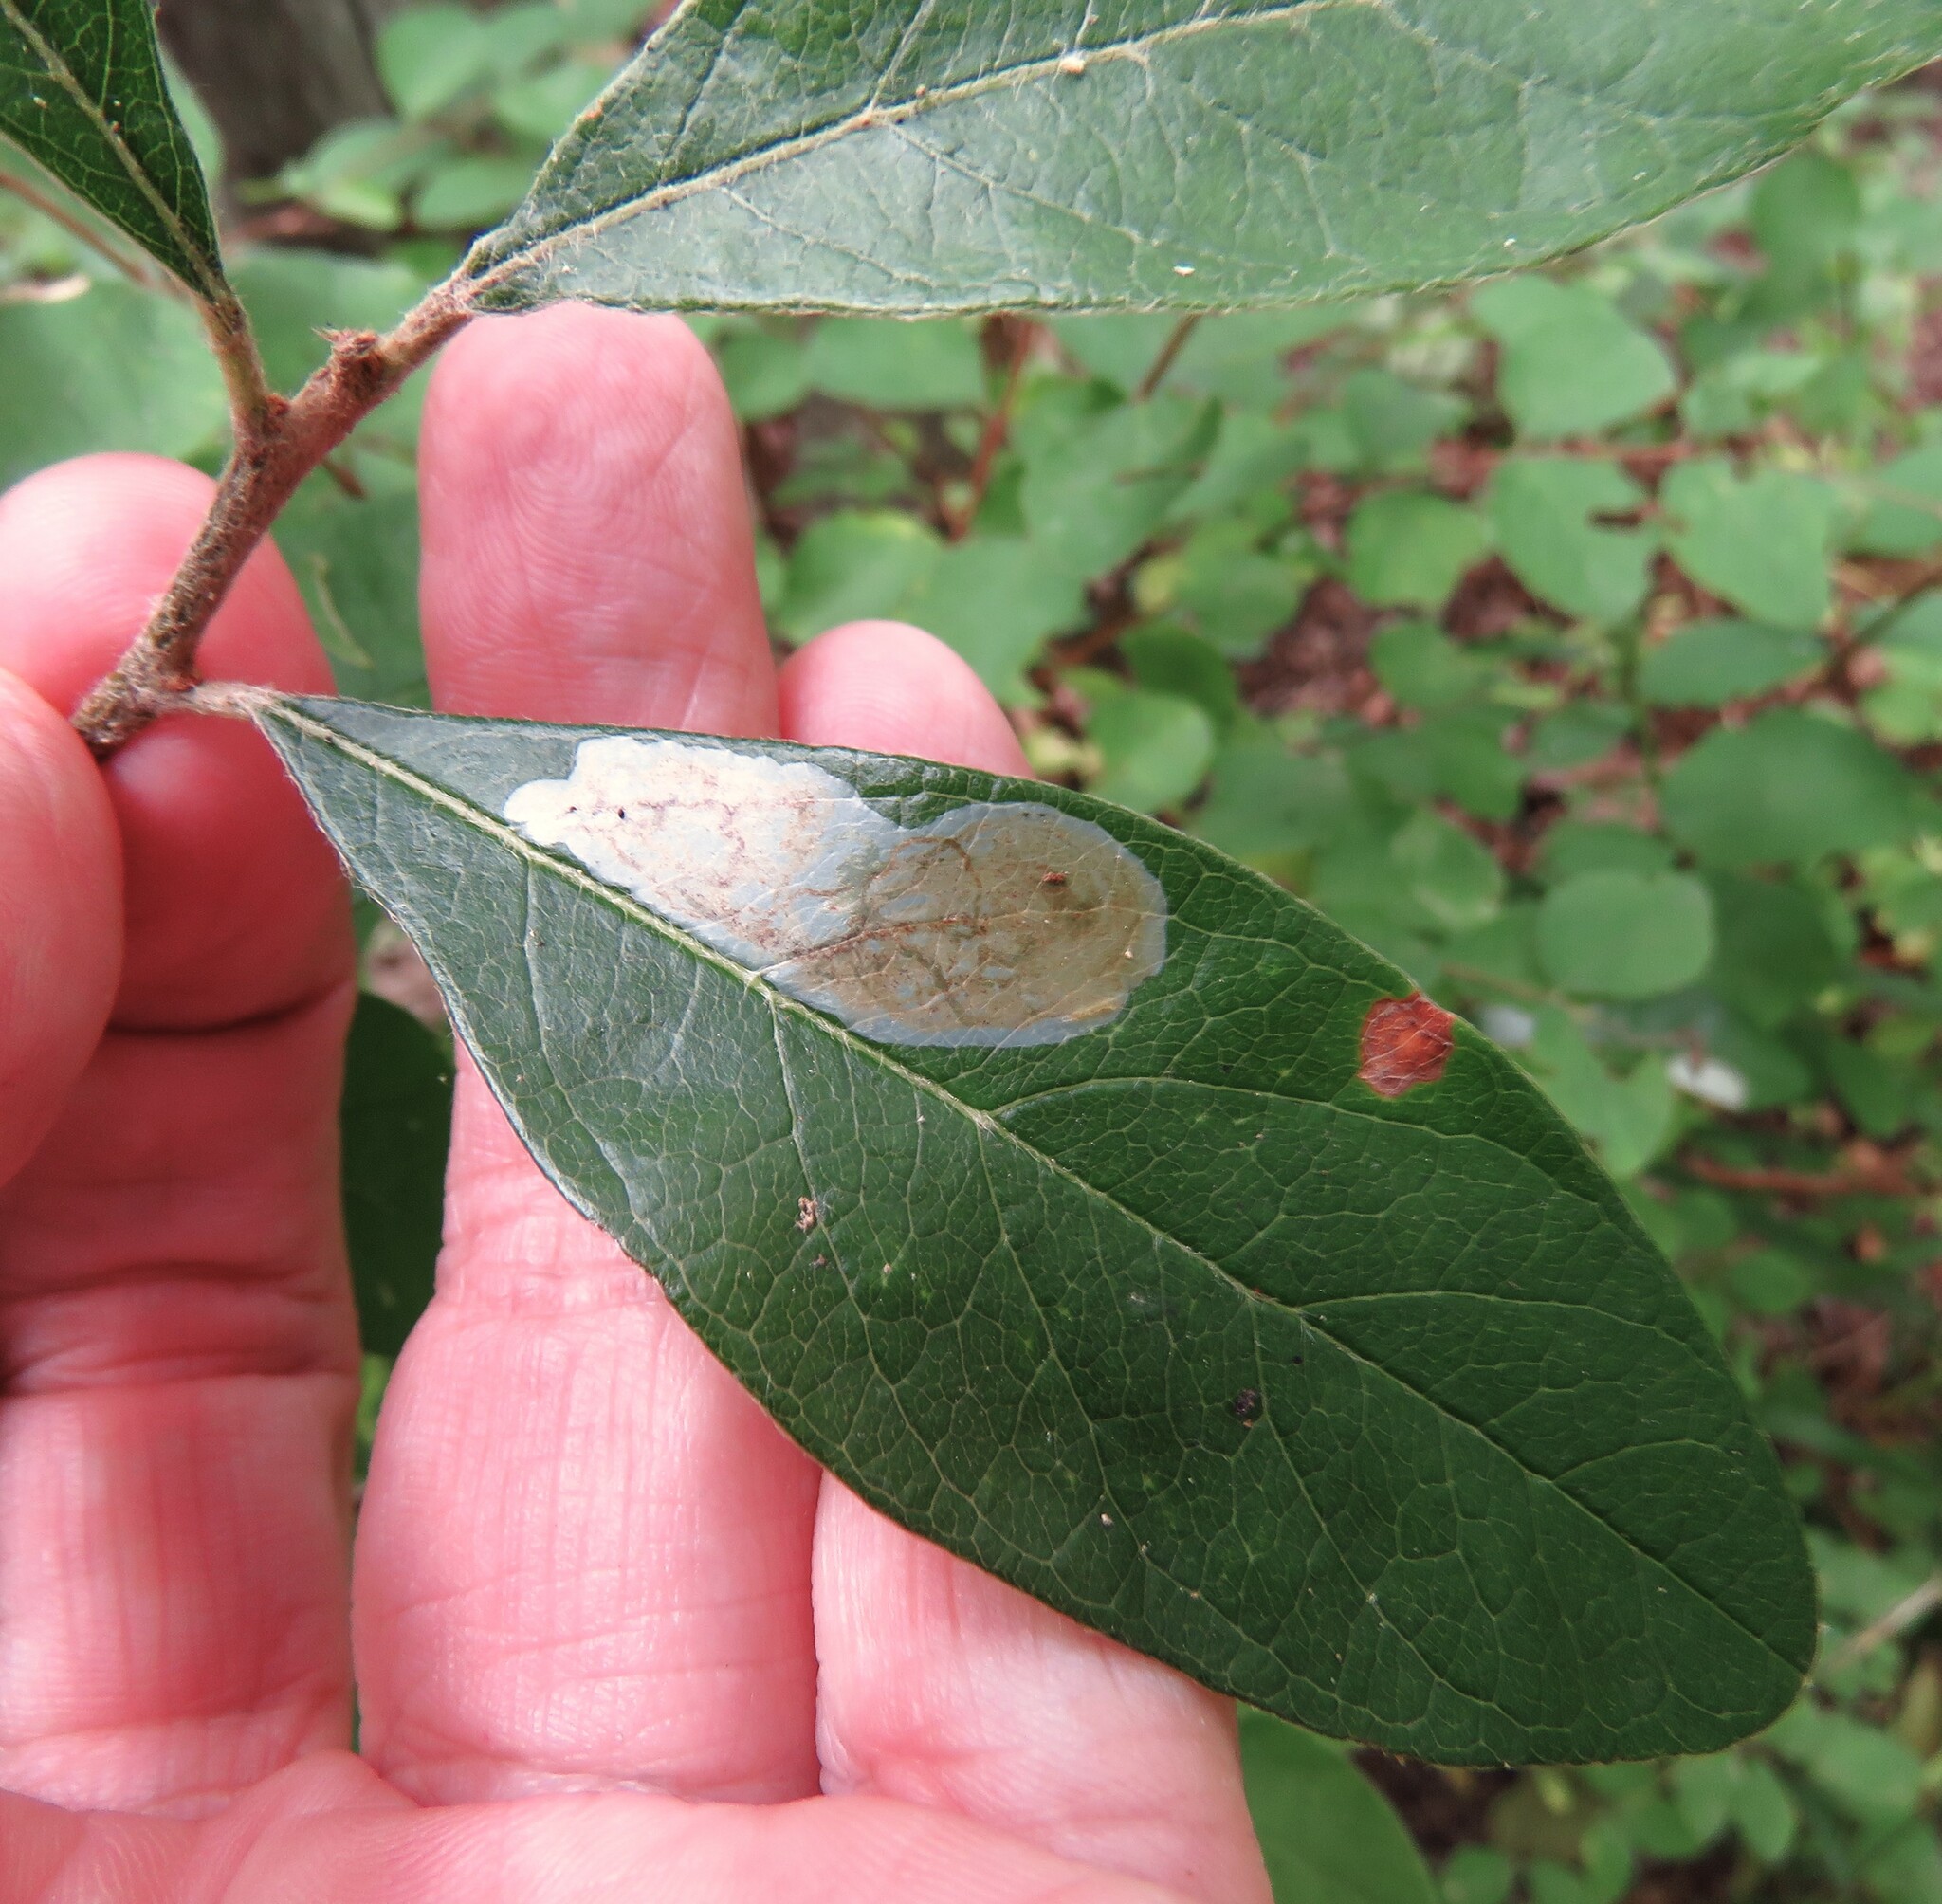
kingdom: Animalia
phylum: Arthropoda
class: Insecta
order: Lepidoptera
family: Gracillariidae
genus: Parectopa
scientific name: Parectopa bumeliella
